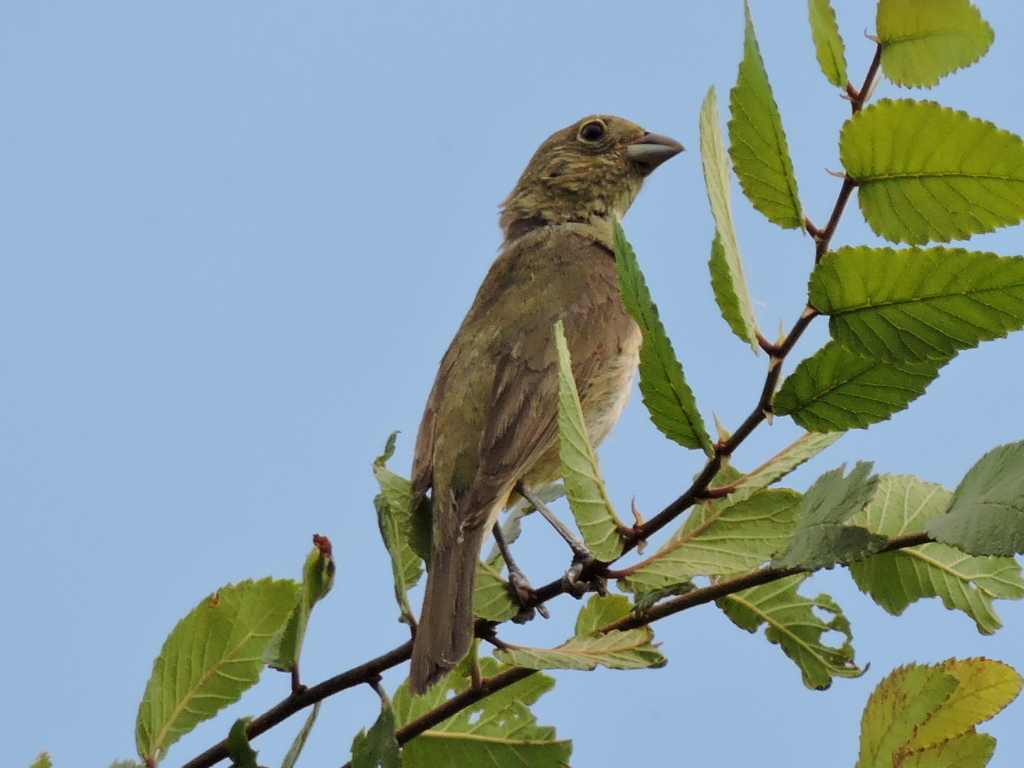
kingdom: Animalia
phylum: Chordata
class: Aves
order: Passeriformes
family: Cardinalidae
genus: Passerina
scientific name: Passerina ciris
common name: Painted bunting
